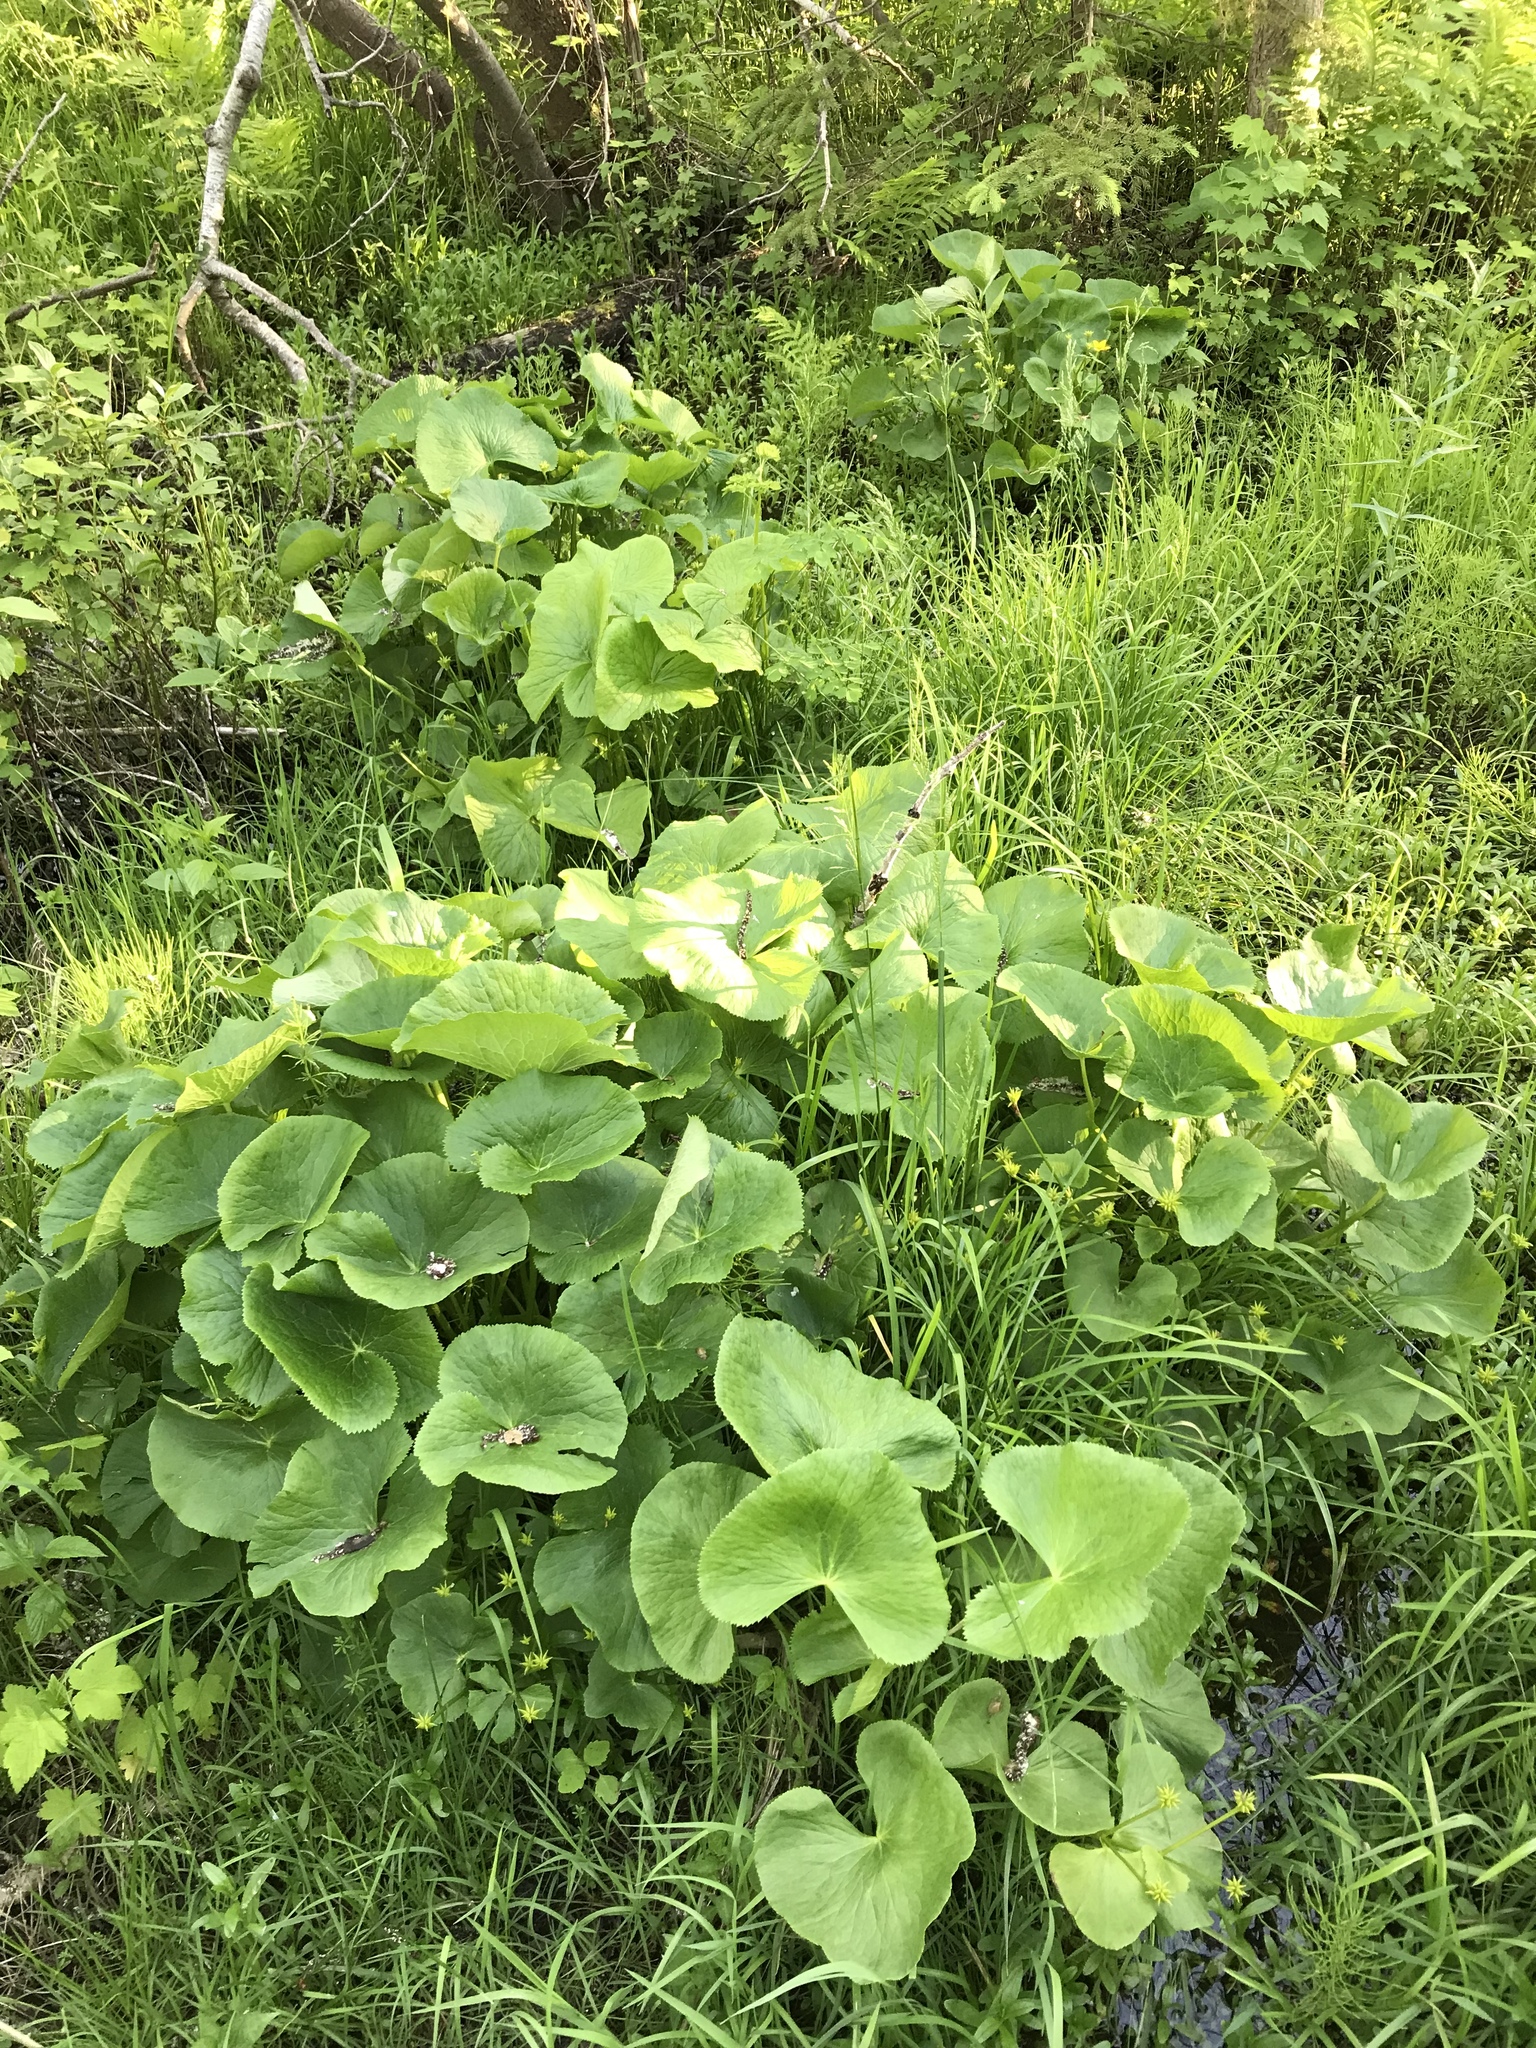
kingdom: Plantae
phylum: Tracheophyta
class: Magnoliopsida
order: Ranunculales
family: Ranunculaceae
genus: Caltha
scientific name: Caltha palustris
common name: Marsh marigold
